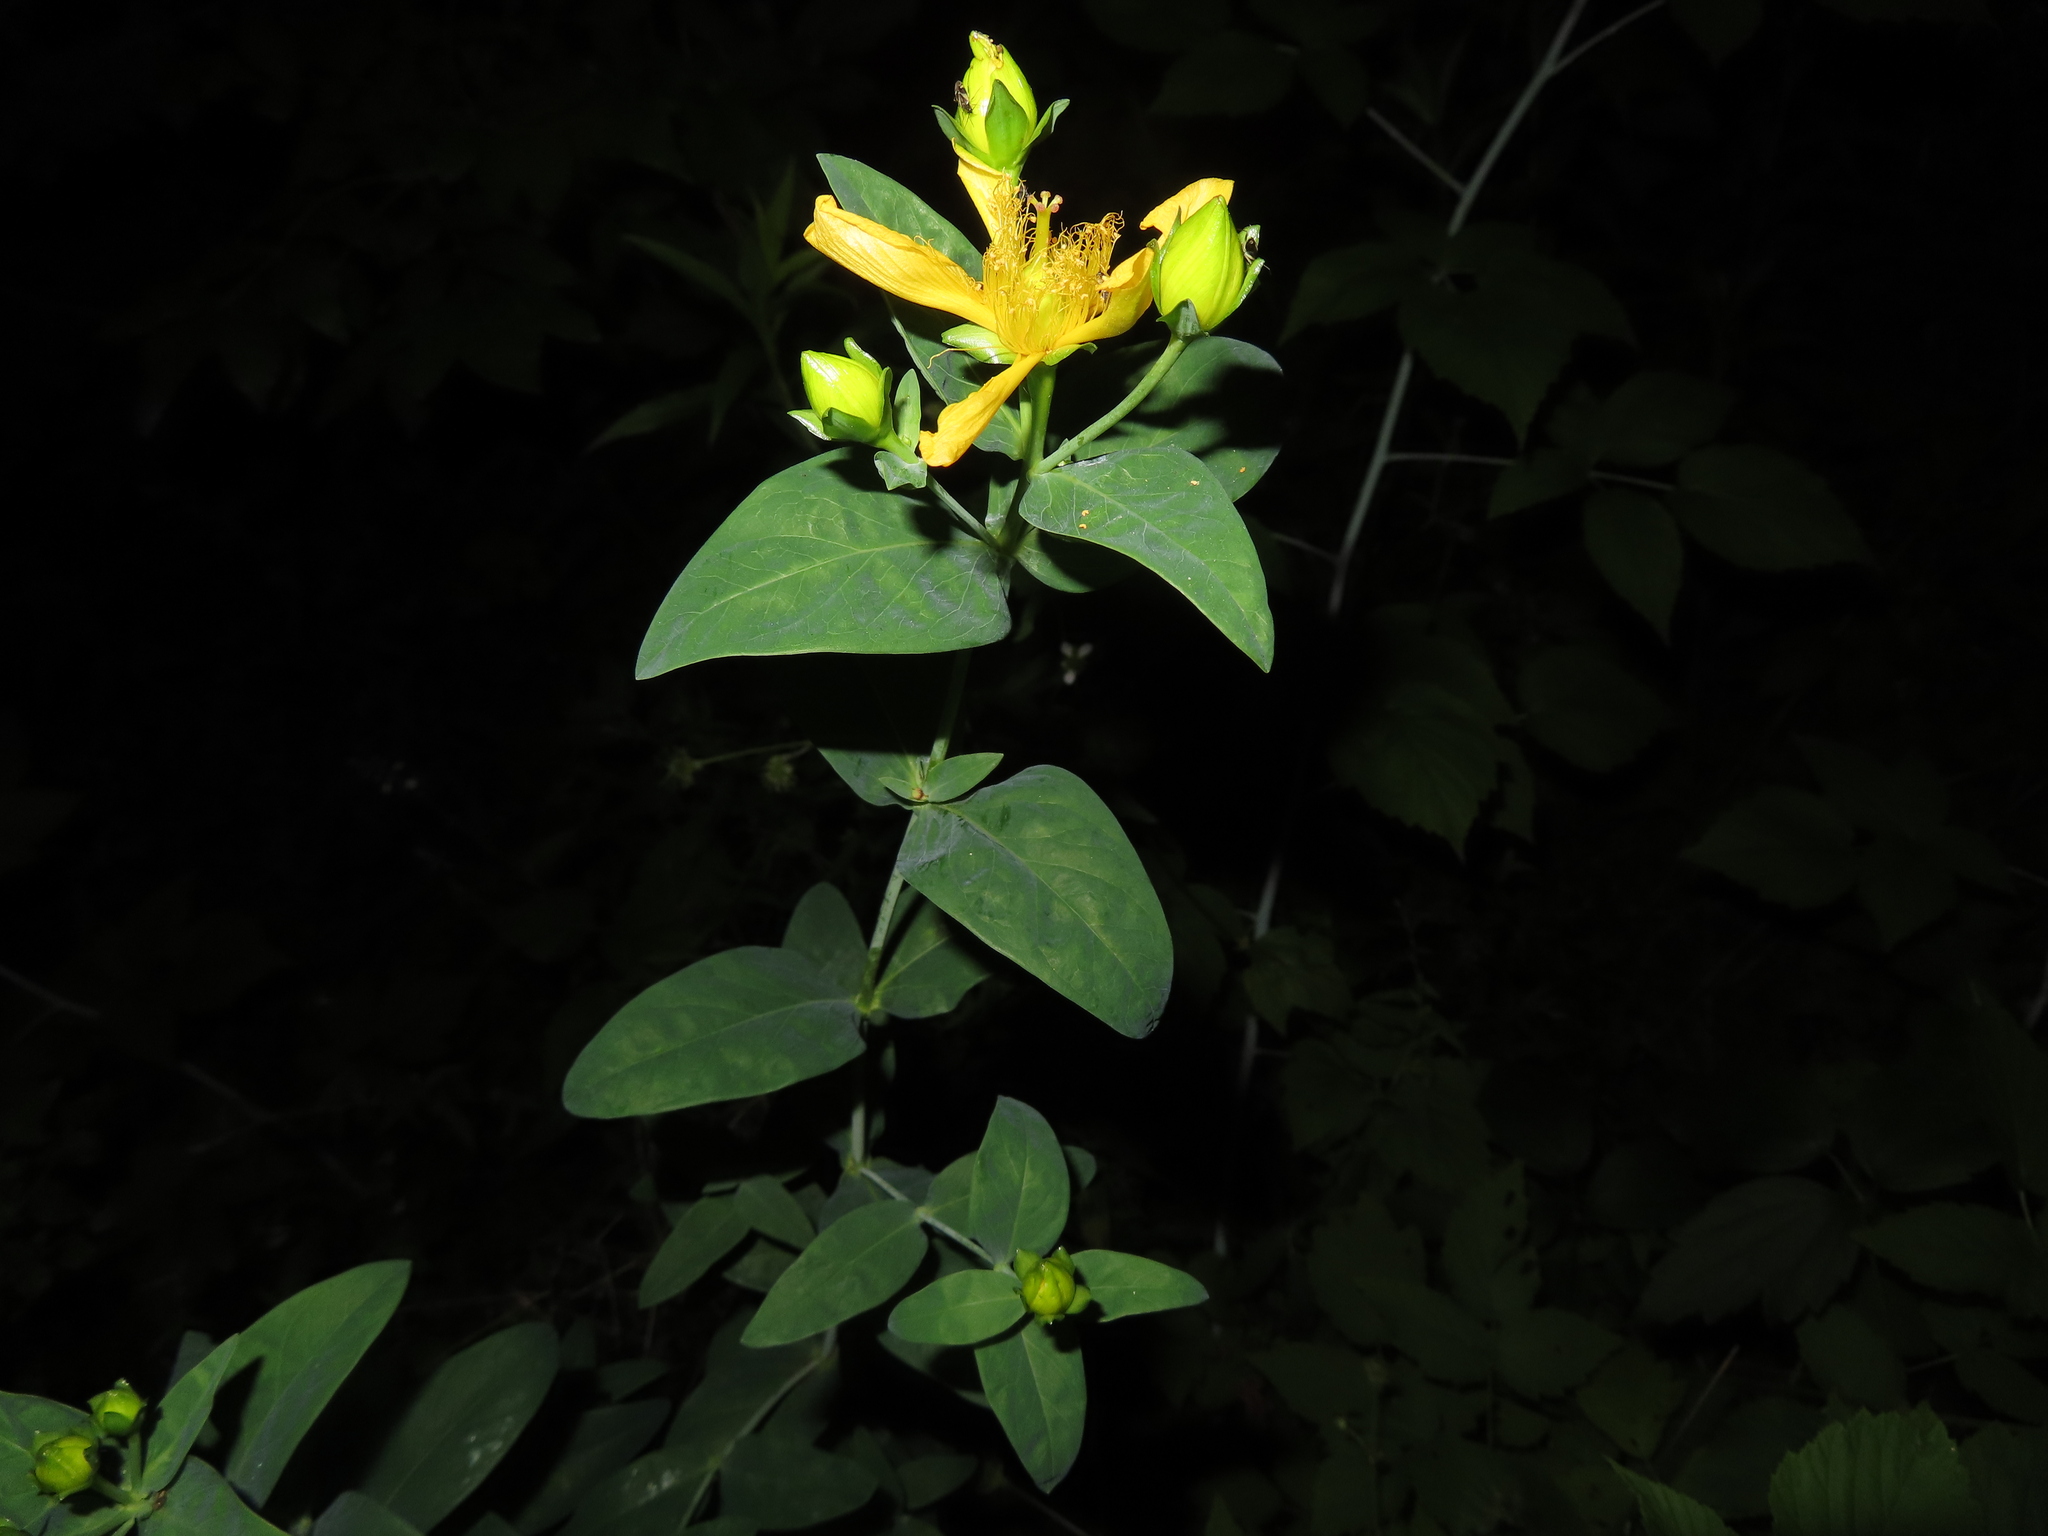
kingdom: Plantae
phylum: Tracheophyta
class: Magnoliopsida
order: Malpighiales
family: Hypericaceae
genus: Hypericum
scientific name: Hypericum ascyron
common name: Giant st. john's-wort
